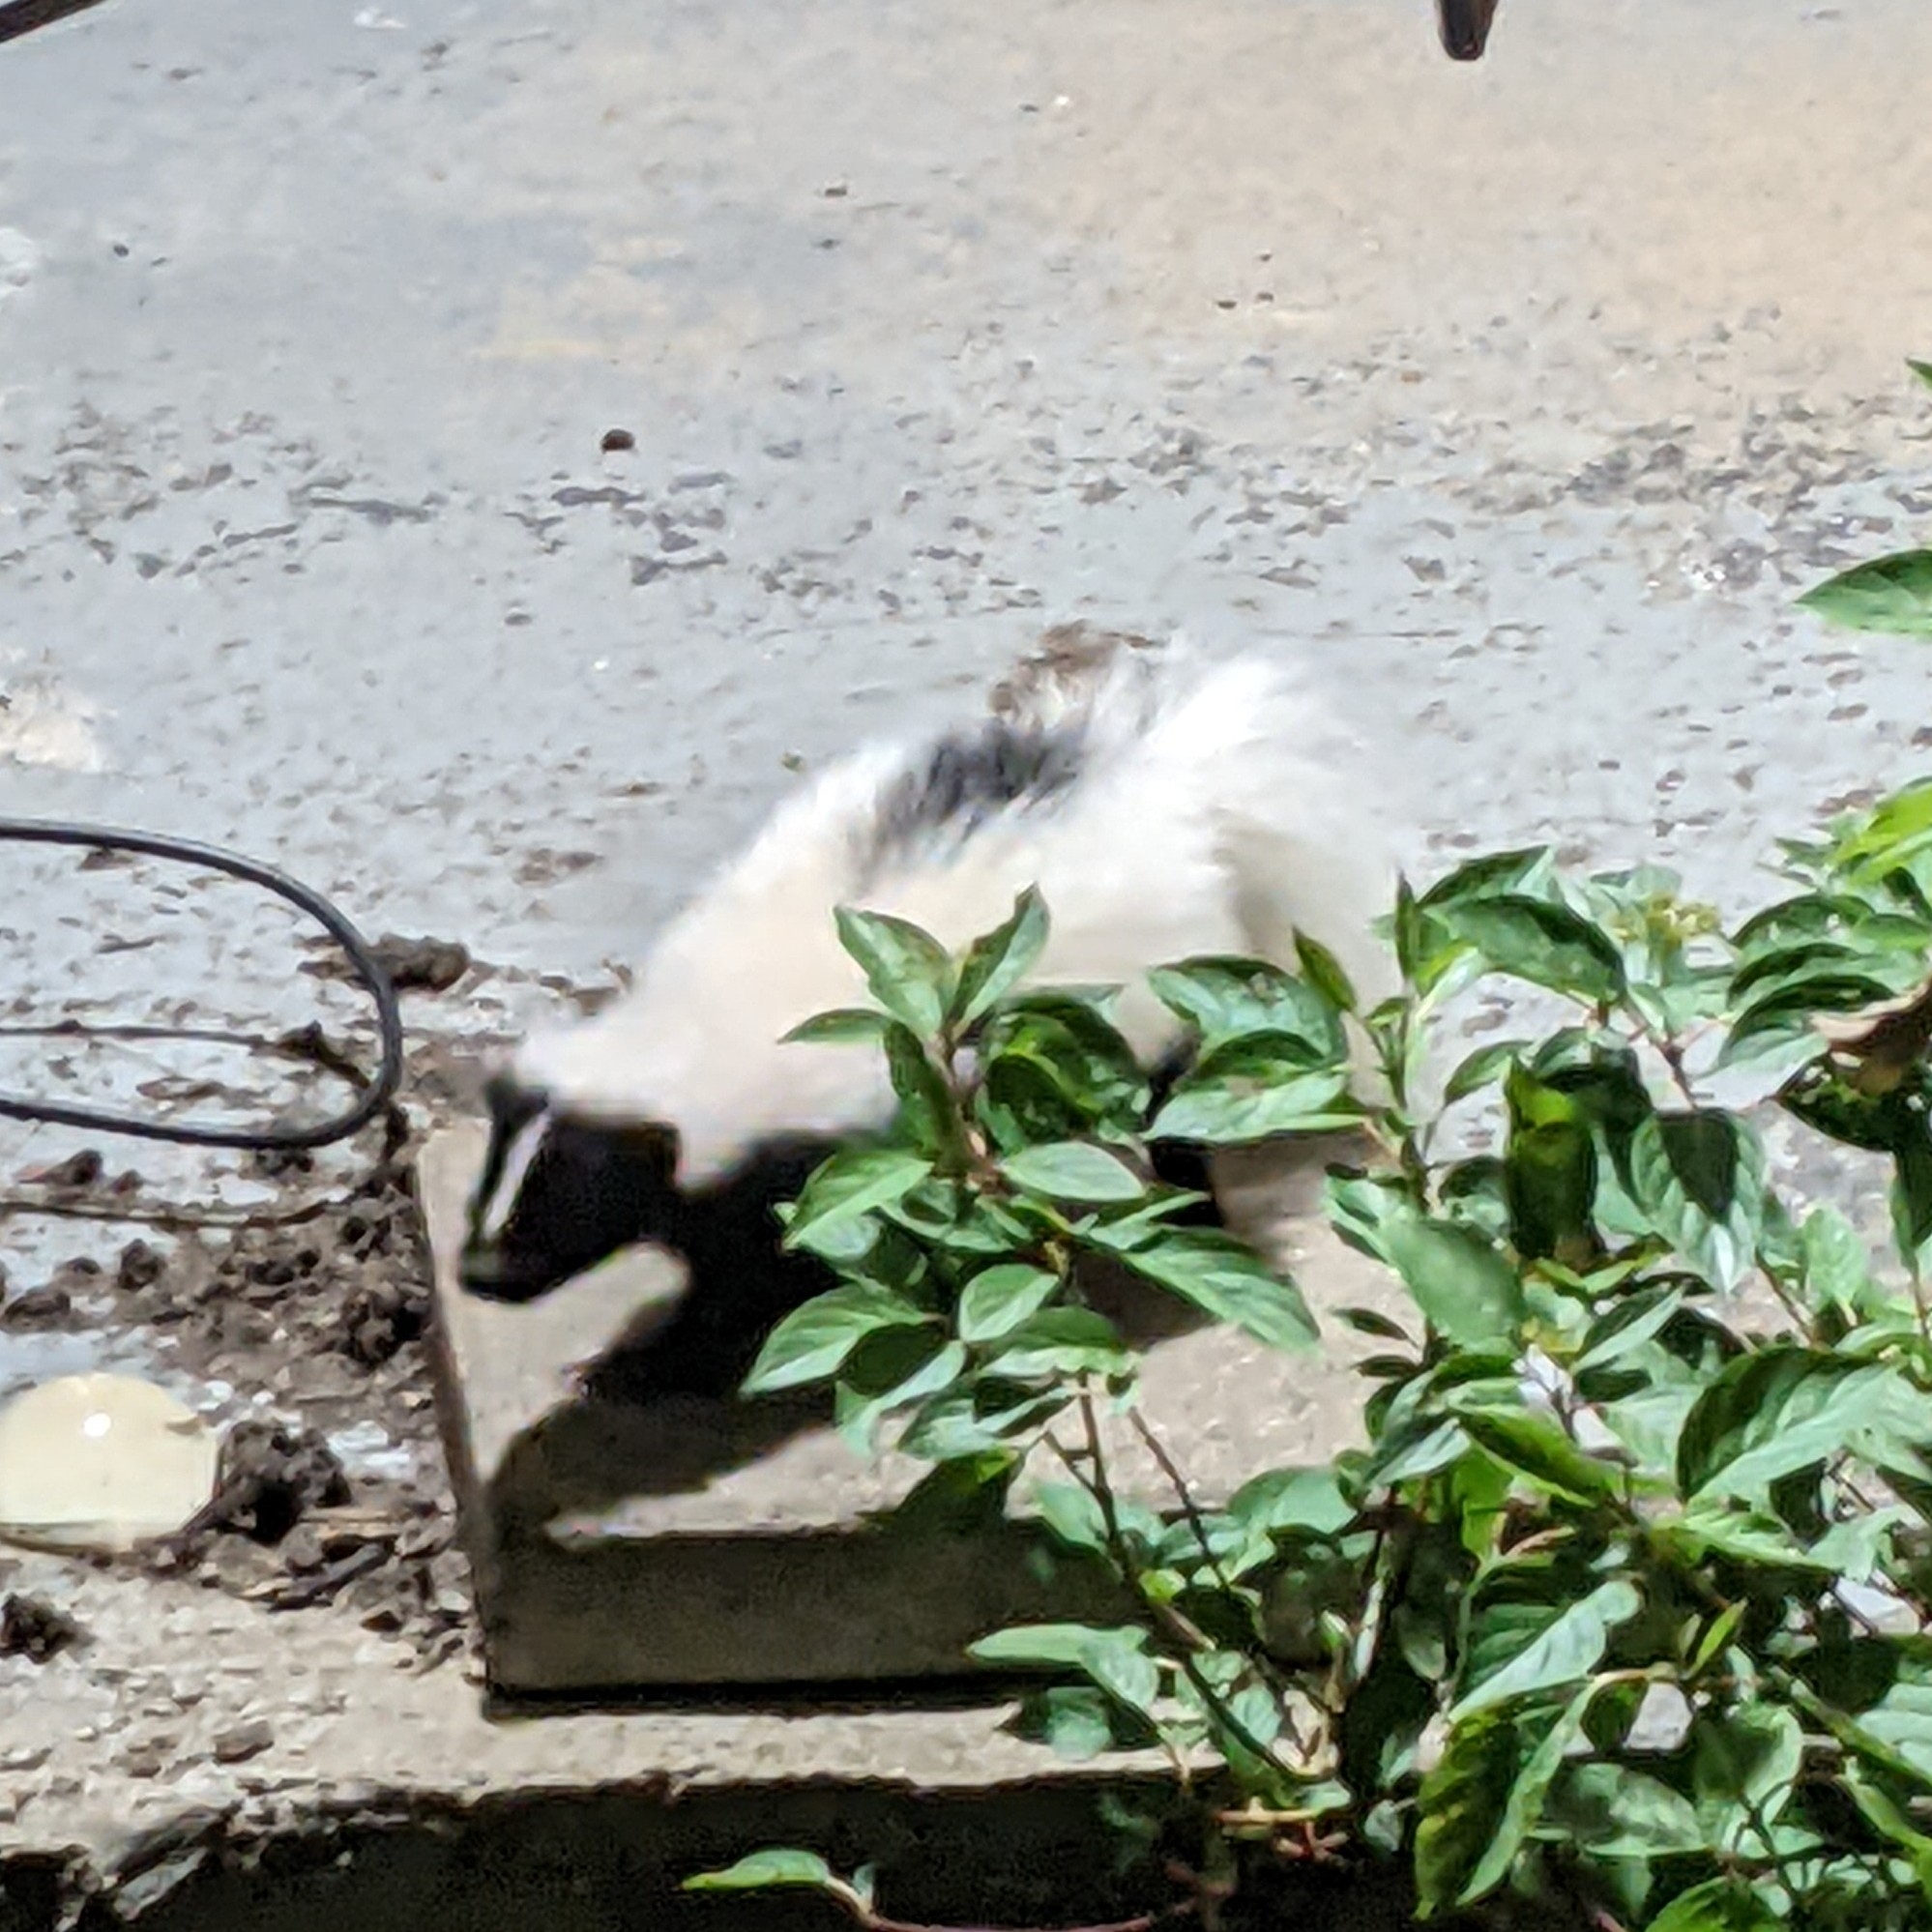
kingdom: Animalia
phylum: Chordata
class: Mammalia
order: Carnivora
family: Mephitidae
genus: Mephitis
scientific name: Mephitis mephitis
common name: Striped skunk
